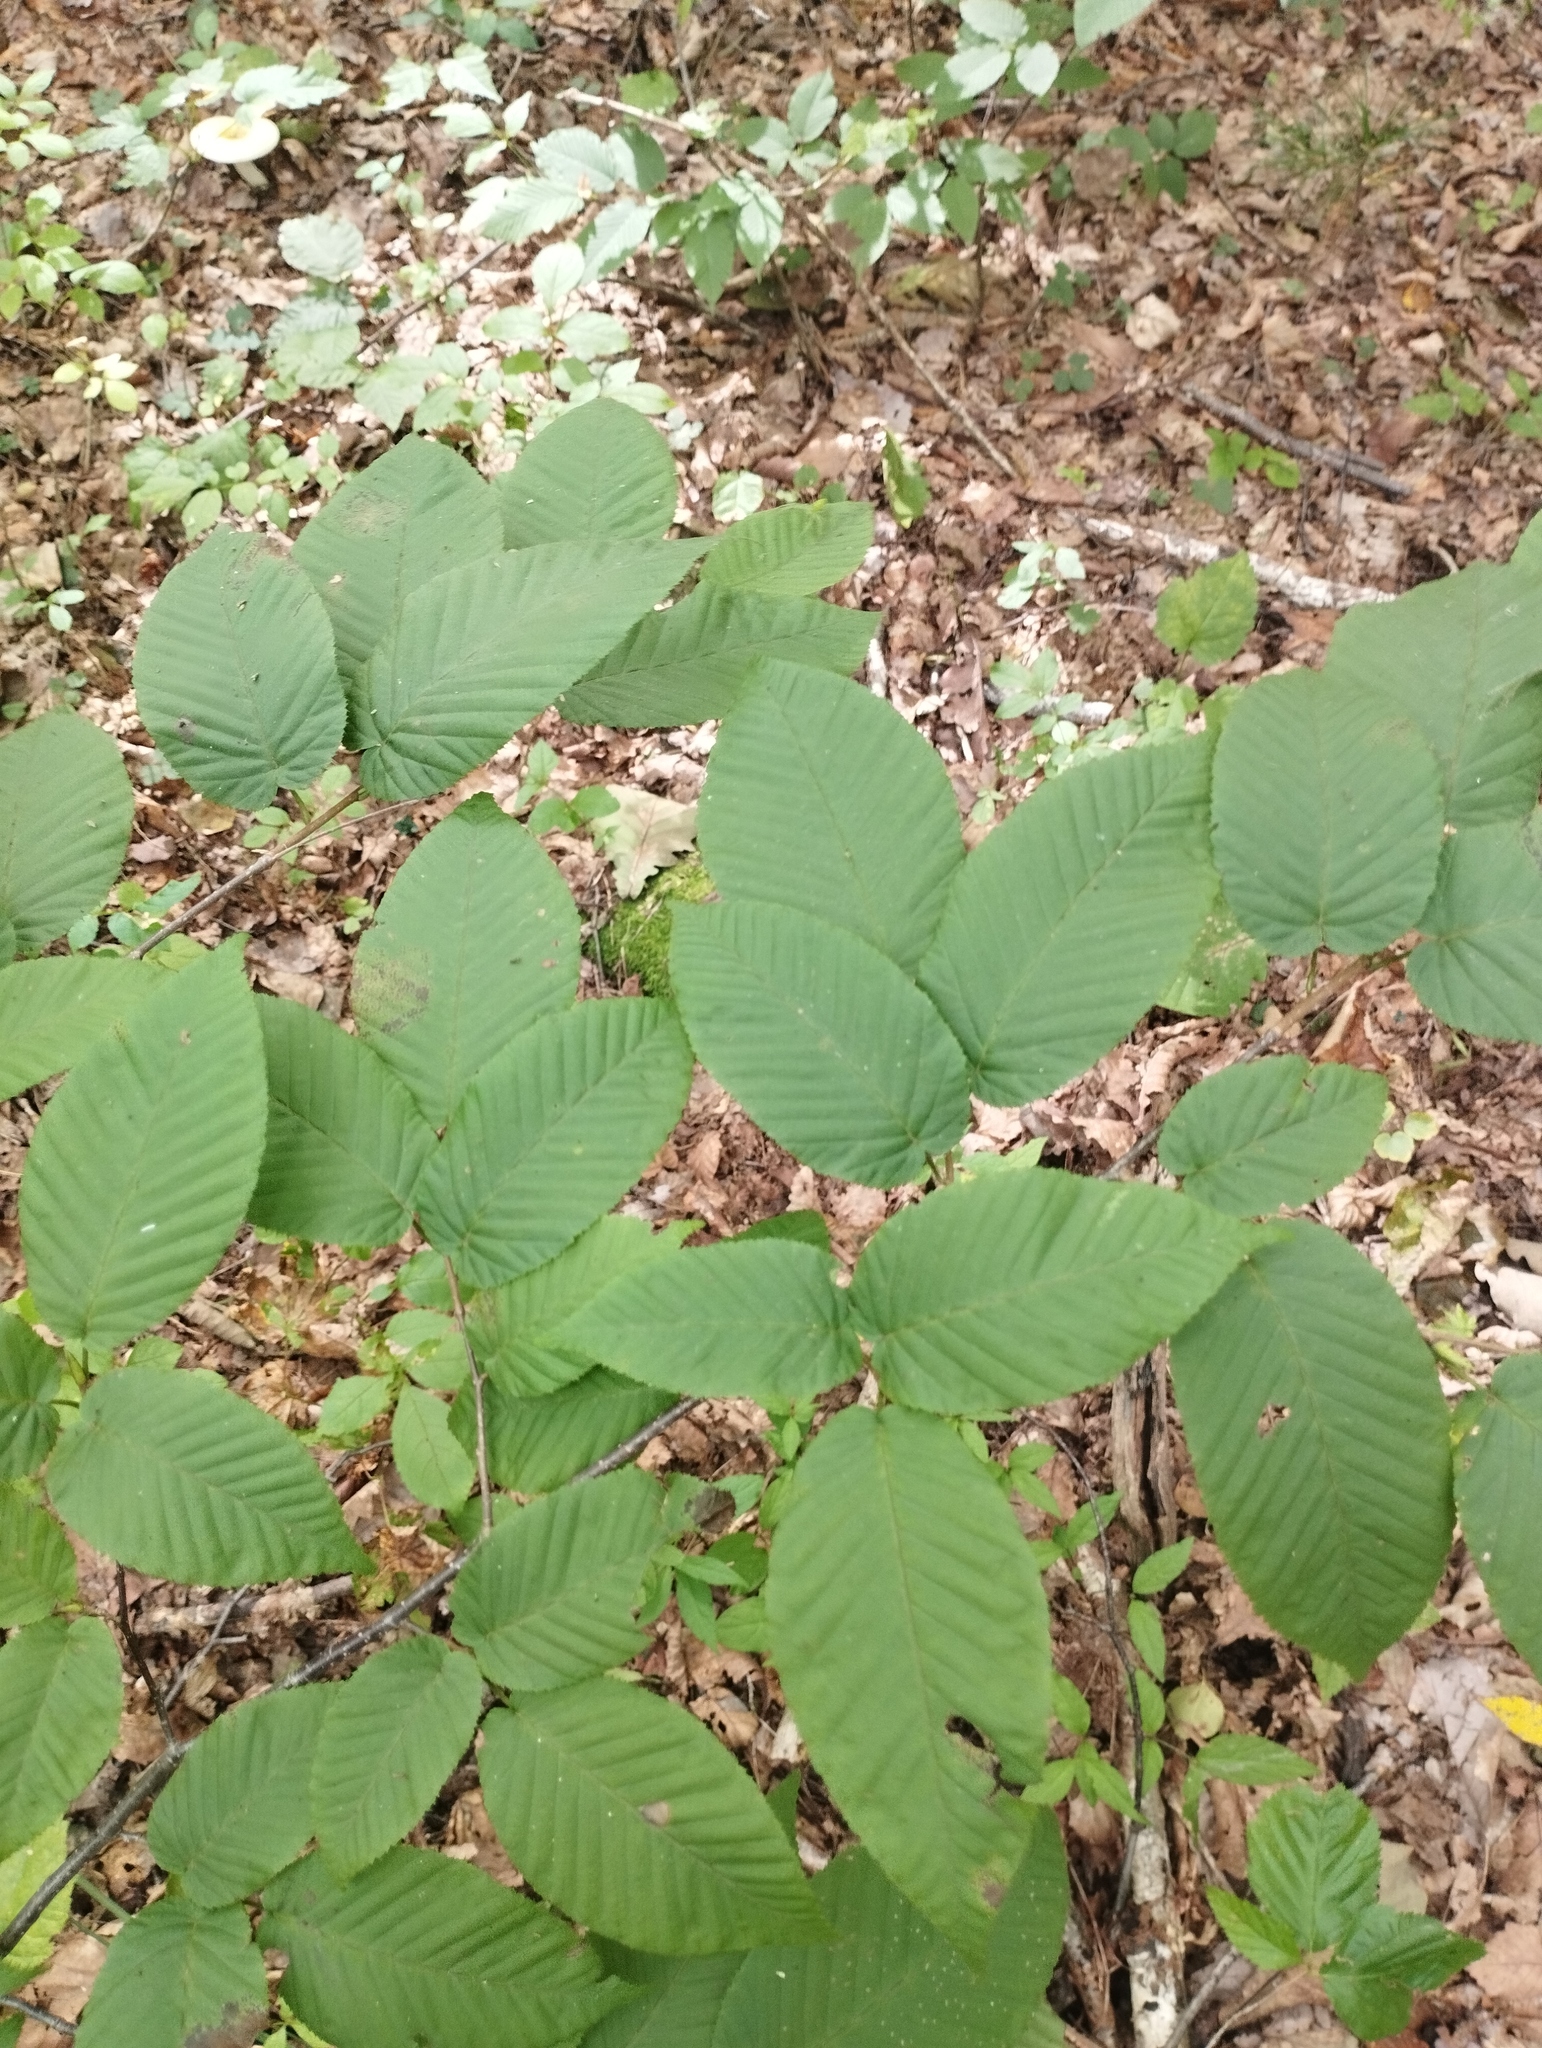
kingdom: Plantae
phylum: Tracheophyta
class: Magnoliopsida
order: Fagales
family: Betulaceae
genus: Carpinus
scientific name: Carpinus cordata
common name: Sawa hornbeam
